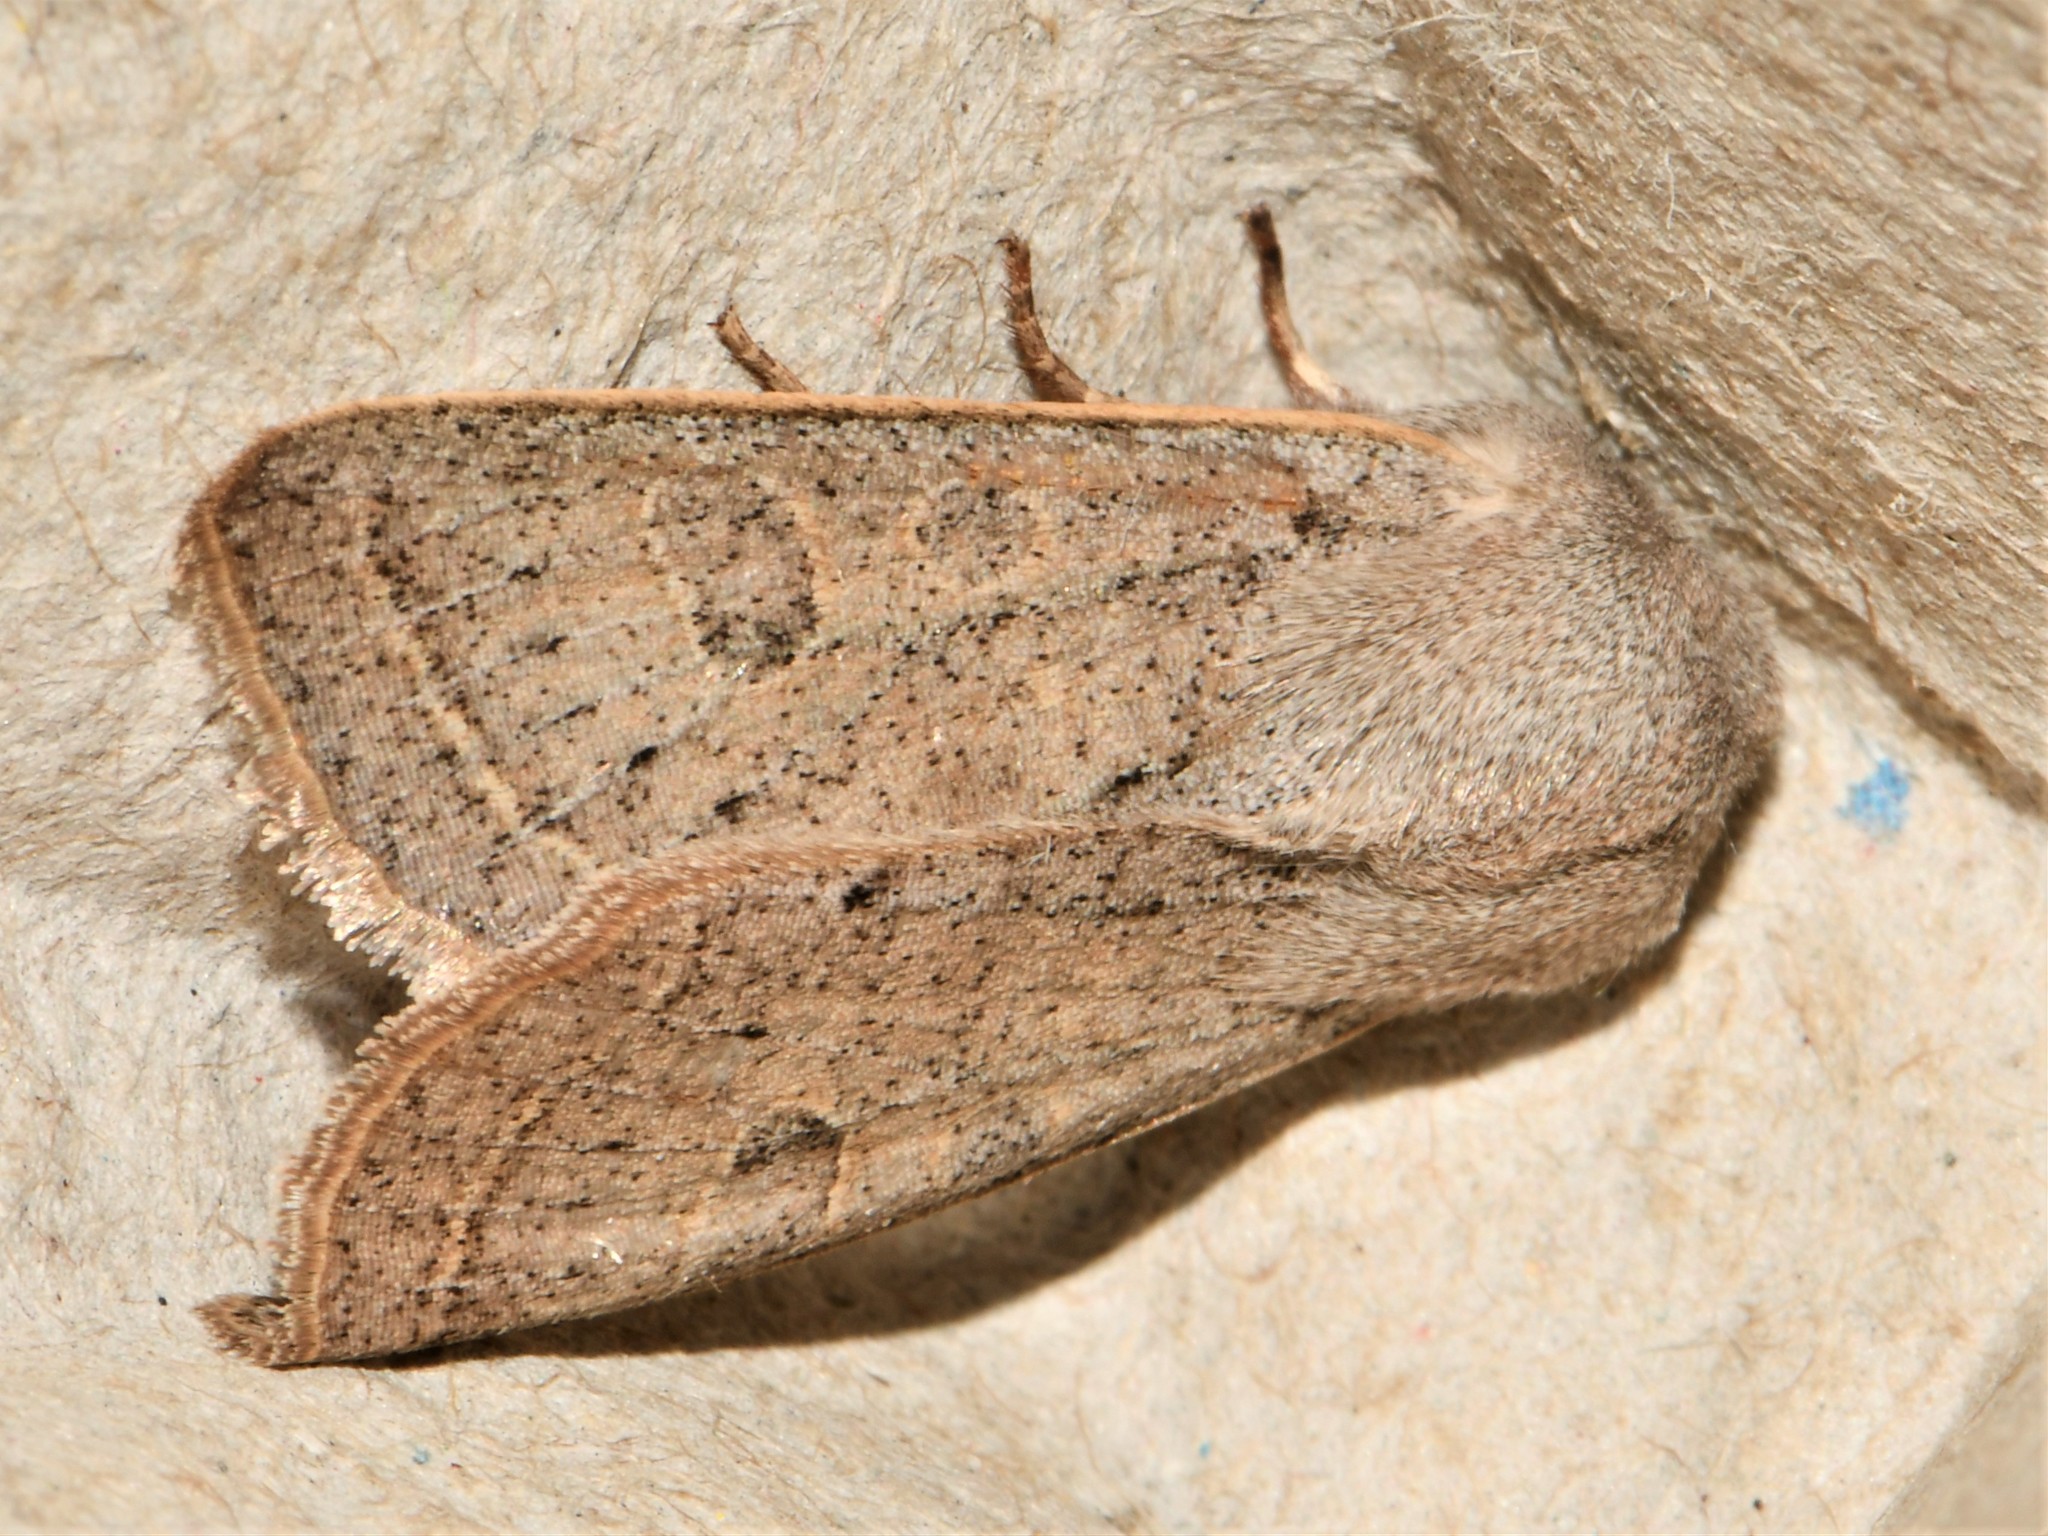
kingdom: Animalia
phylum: Arthropoda
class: Insecta
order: Lepidoptera
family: Noctuidae
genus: Orthosia
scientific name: Orthosia gracilis
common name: Powdered quaker
